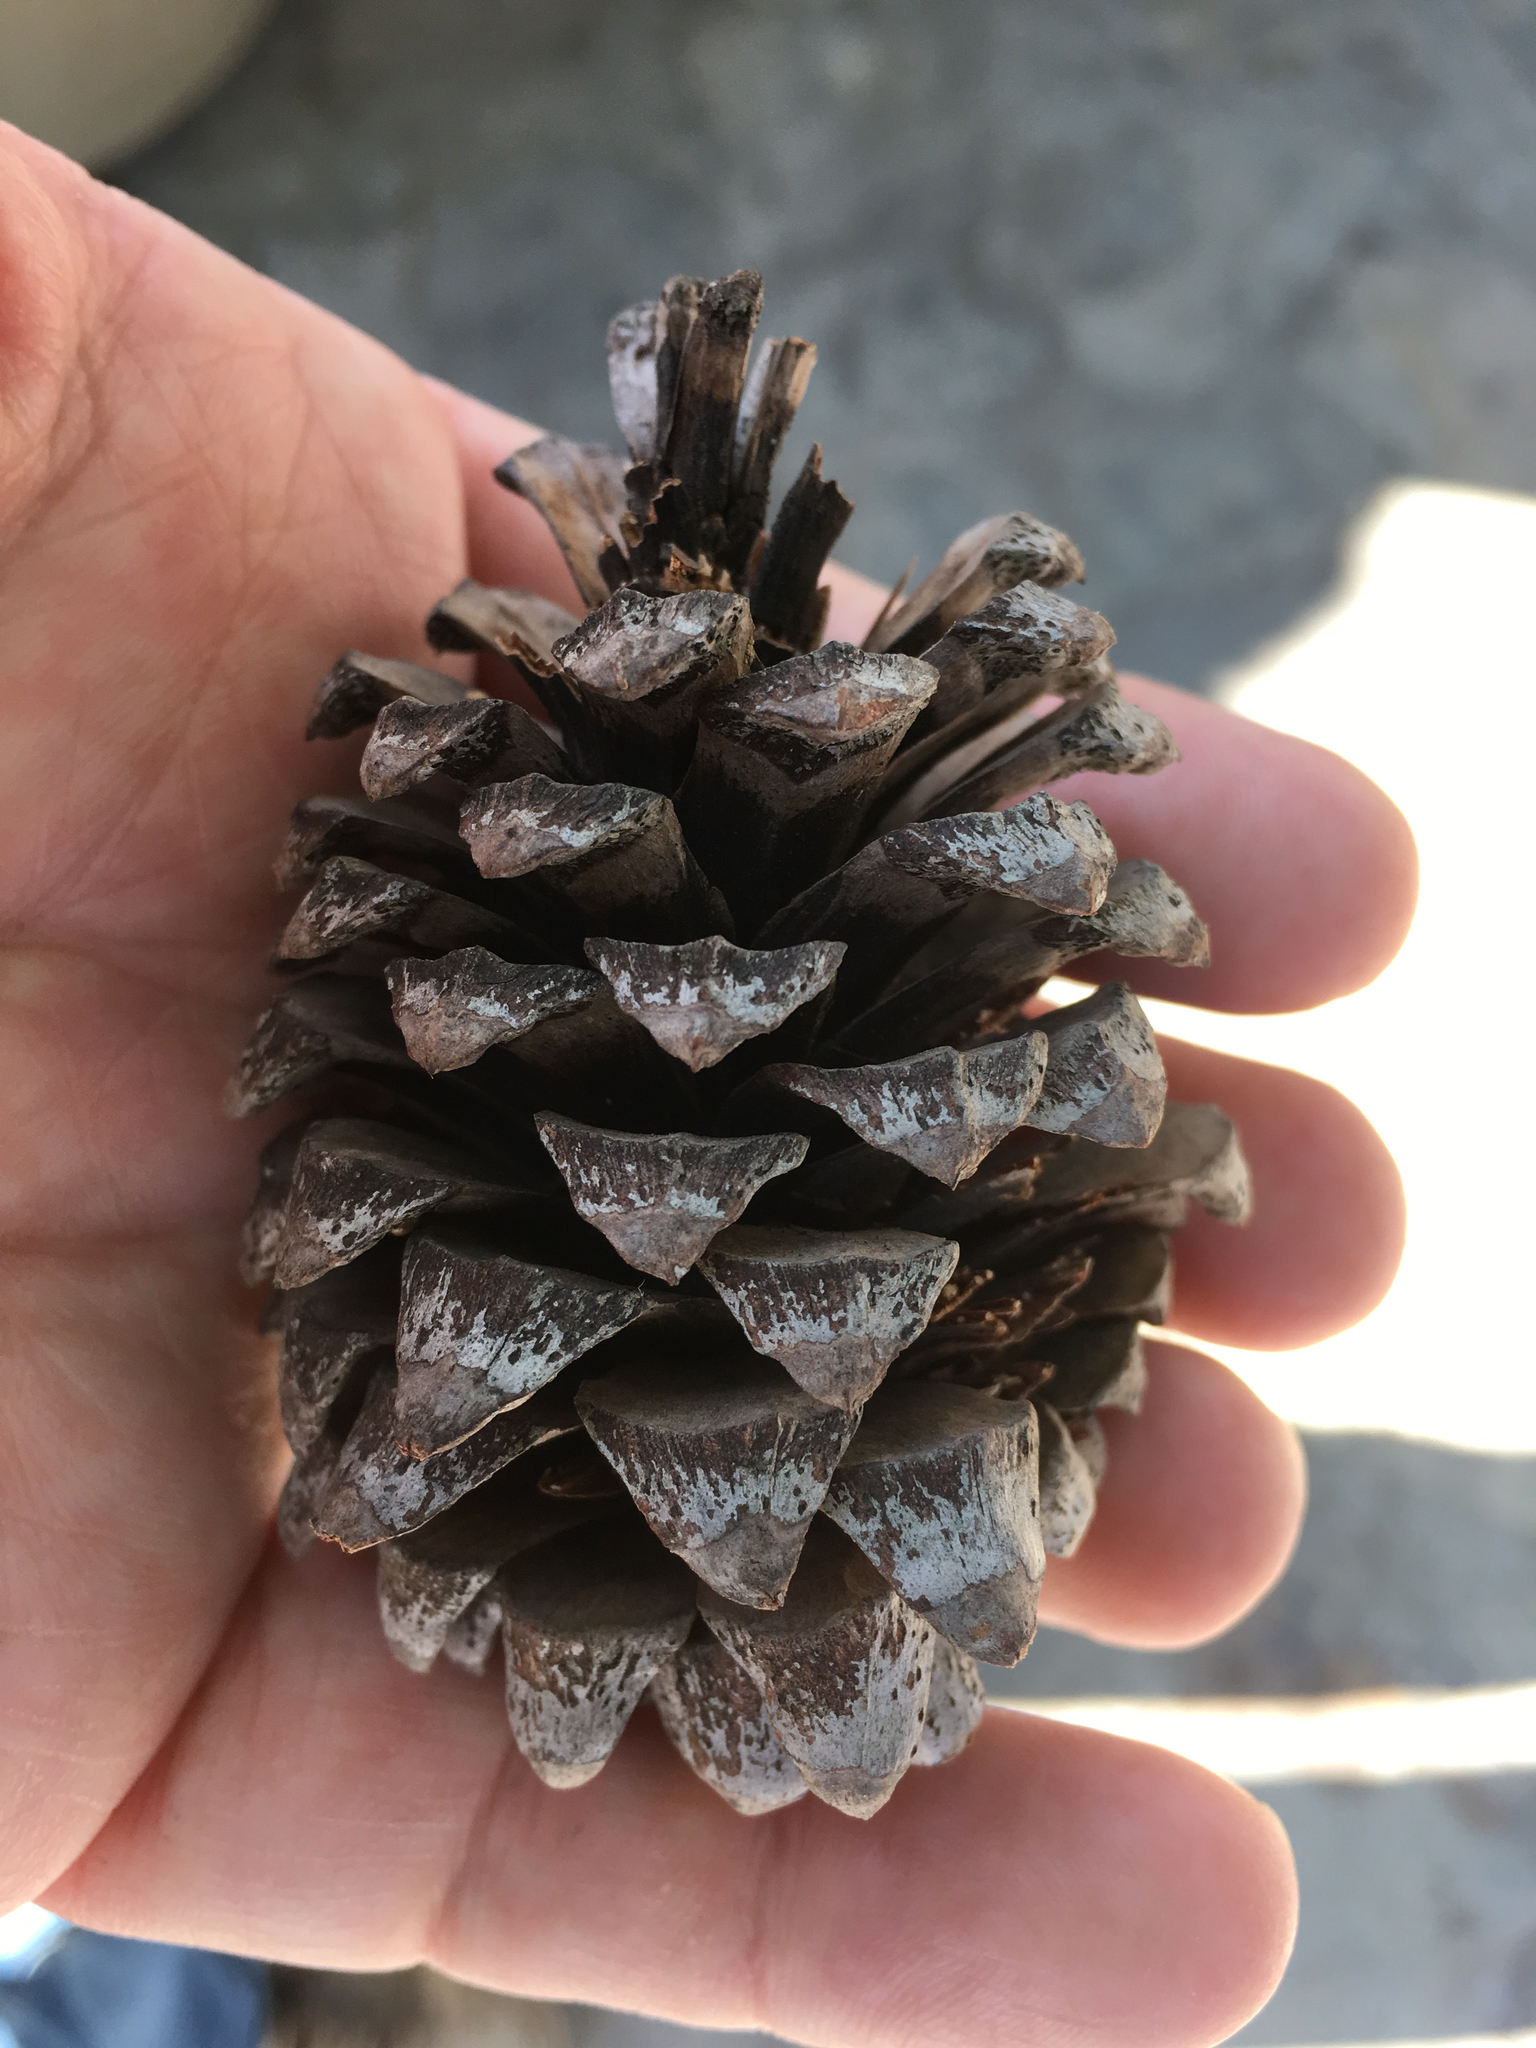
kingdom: Plantae
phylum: Tracheophyta
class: Pinopsida
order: Pinales
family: Pinaceae
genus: Pinus
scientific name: Pinus pseudostrobus
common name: False weymouth pine
